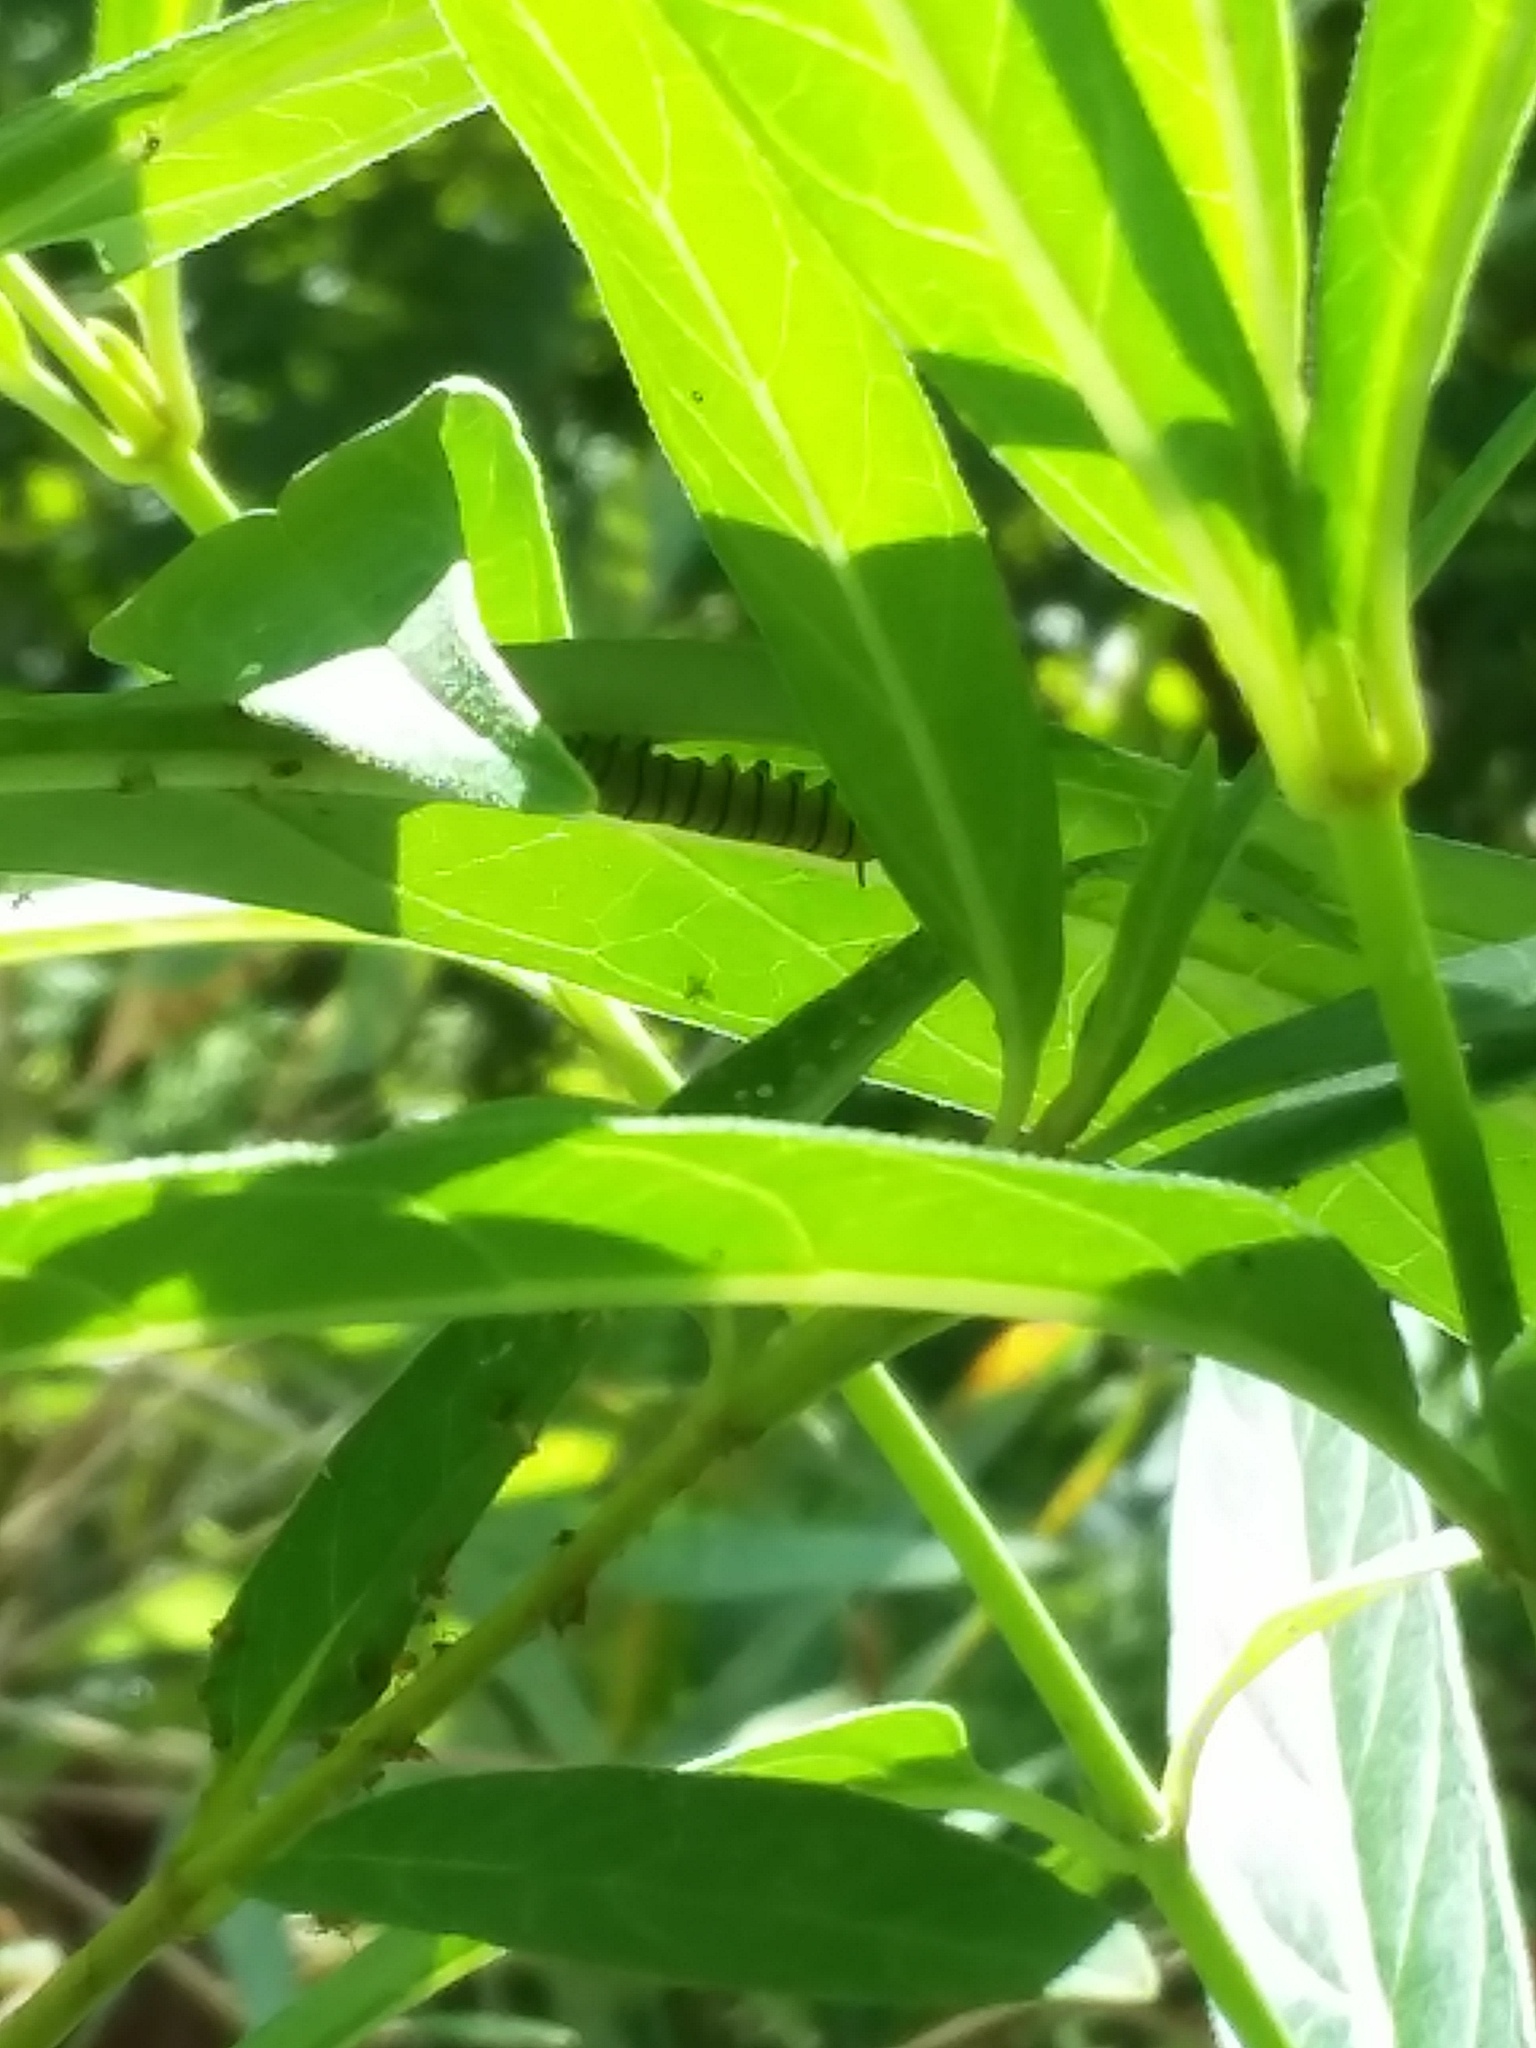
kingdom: Animalia
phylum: Arthropoda
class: Insecta
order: Lepidoptera
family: Nymphalidae
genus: Danaus
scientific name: Danaus plexippus
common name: Monarch
